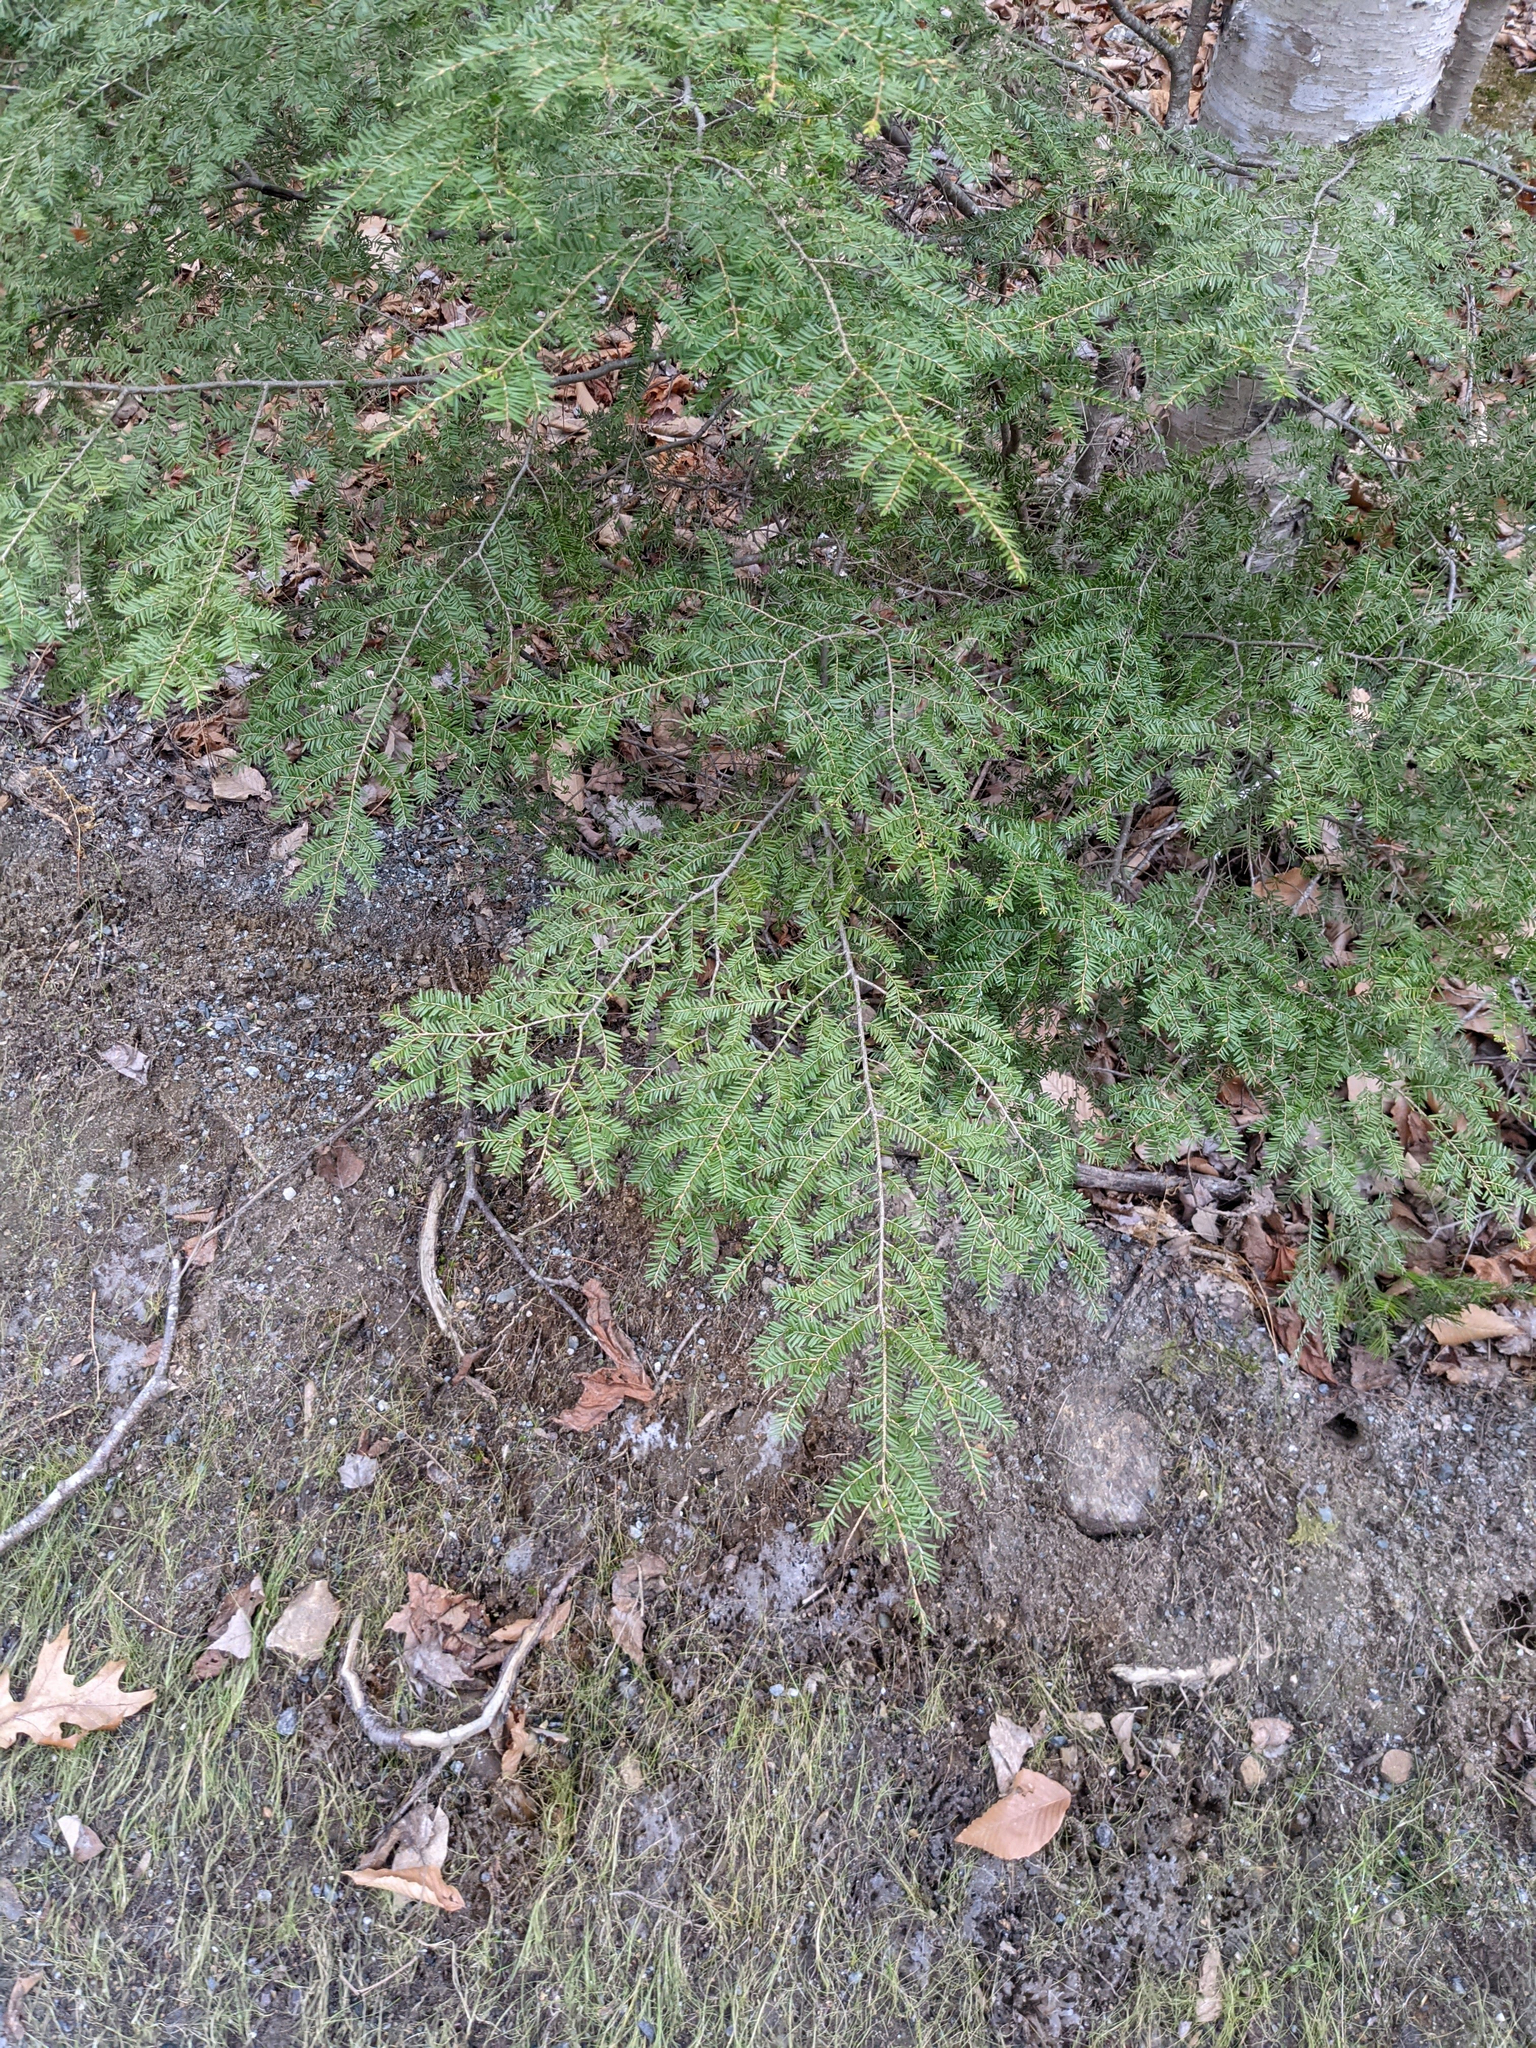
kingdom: Plantae
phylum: Tracheophyta
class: Pinopsida
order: Pinales
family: Pinaceae
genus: Tsuga
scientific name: Tsuga canadensis
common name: Eastern hemlock
